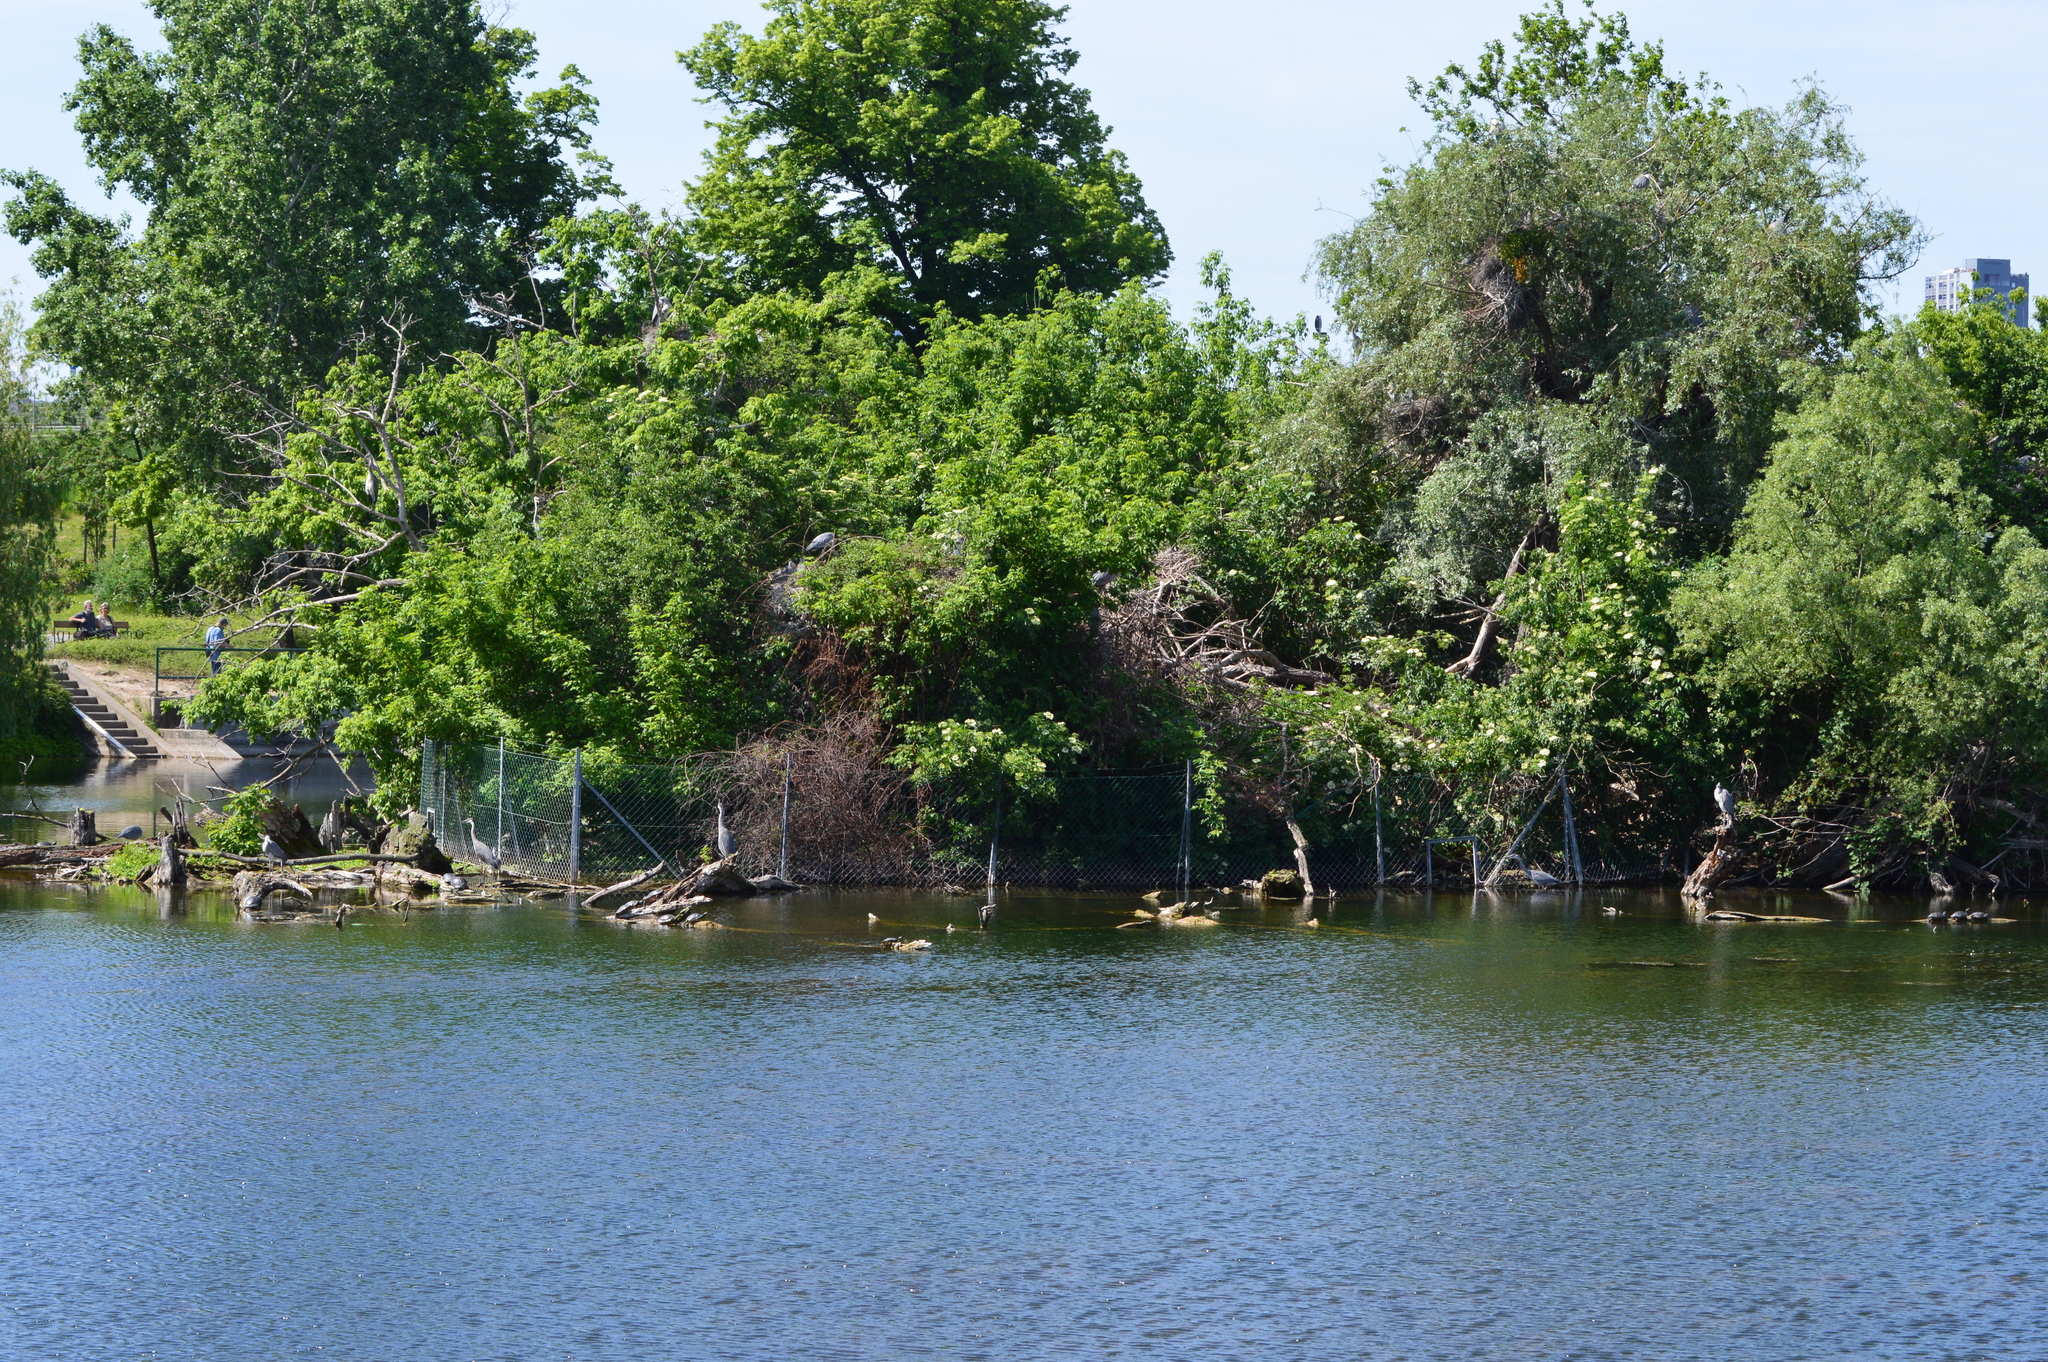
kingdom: Animalia
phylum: Chordata
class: Aves
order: Pelecaniformes
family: Ardeidae
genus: Ardea
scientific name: Ardea cinerea
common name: Grey heron
